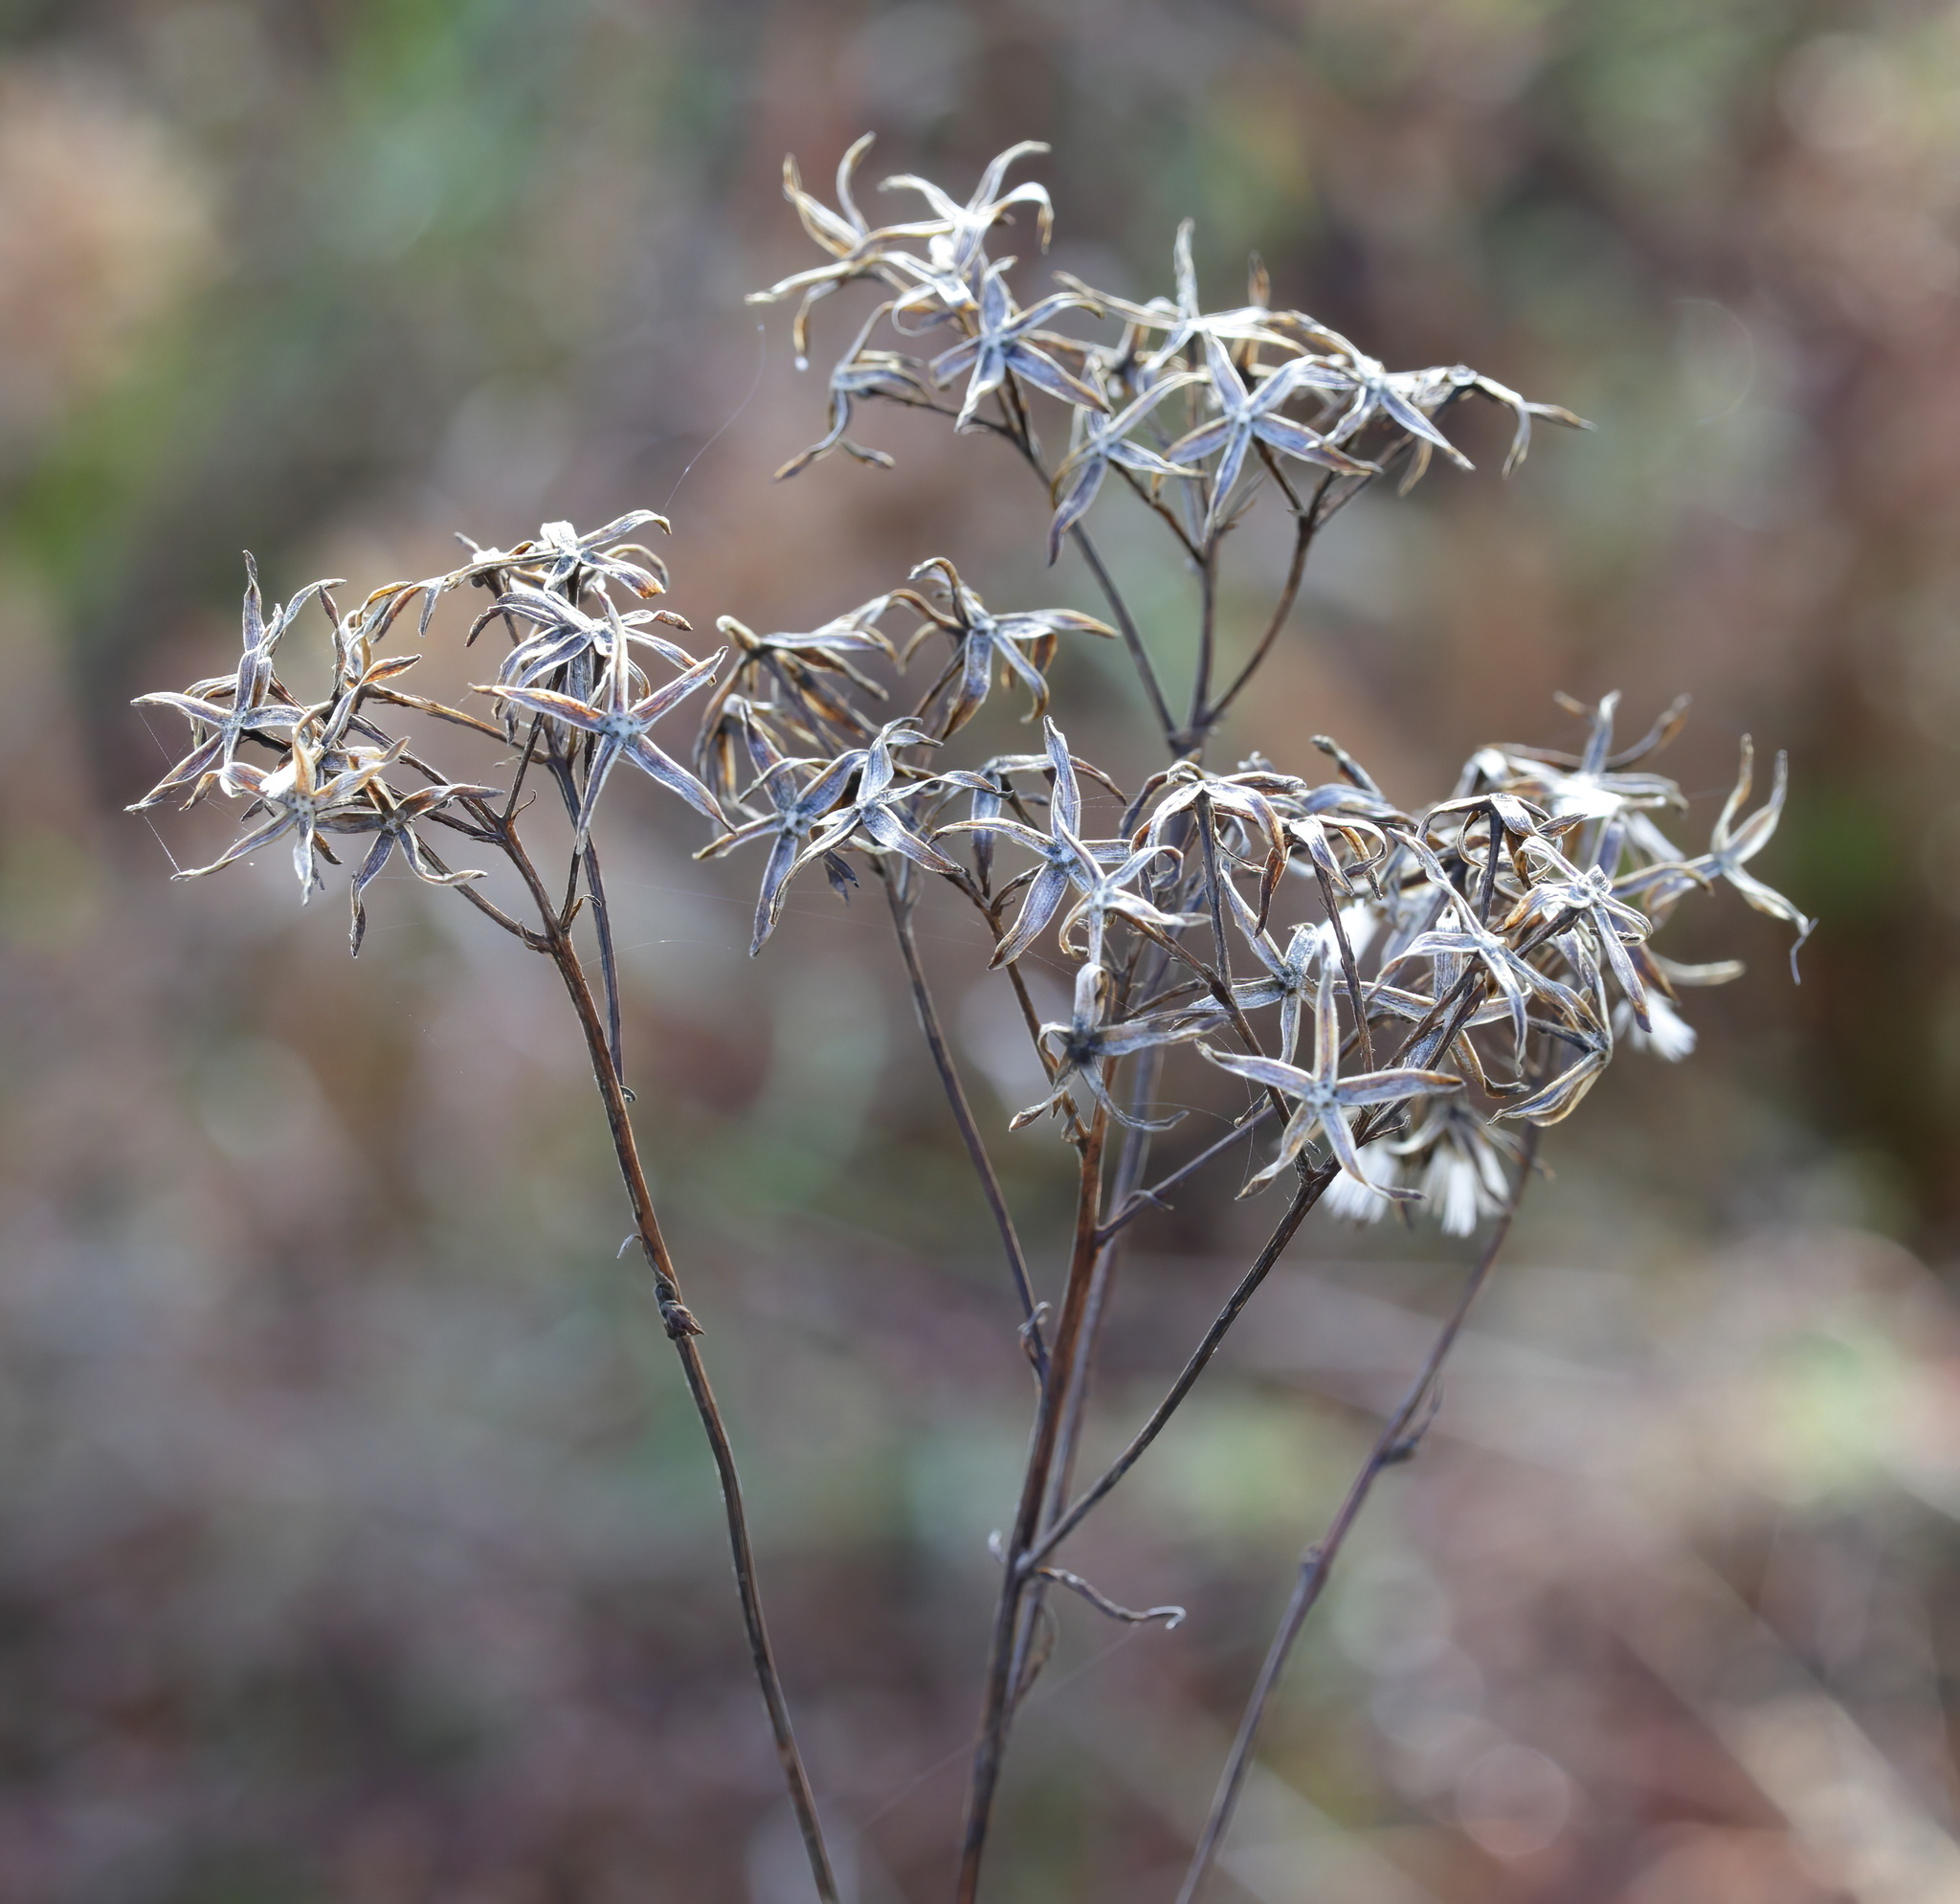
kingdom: Plantae
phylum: Tracheophyta
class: Magnoliopsida
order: Ericales
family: Polemoniaceae
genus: Phlox
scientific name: Phlox carolina
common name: Thick-leaf phlox
